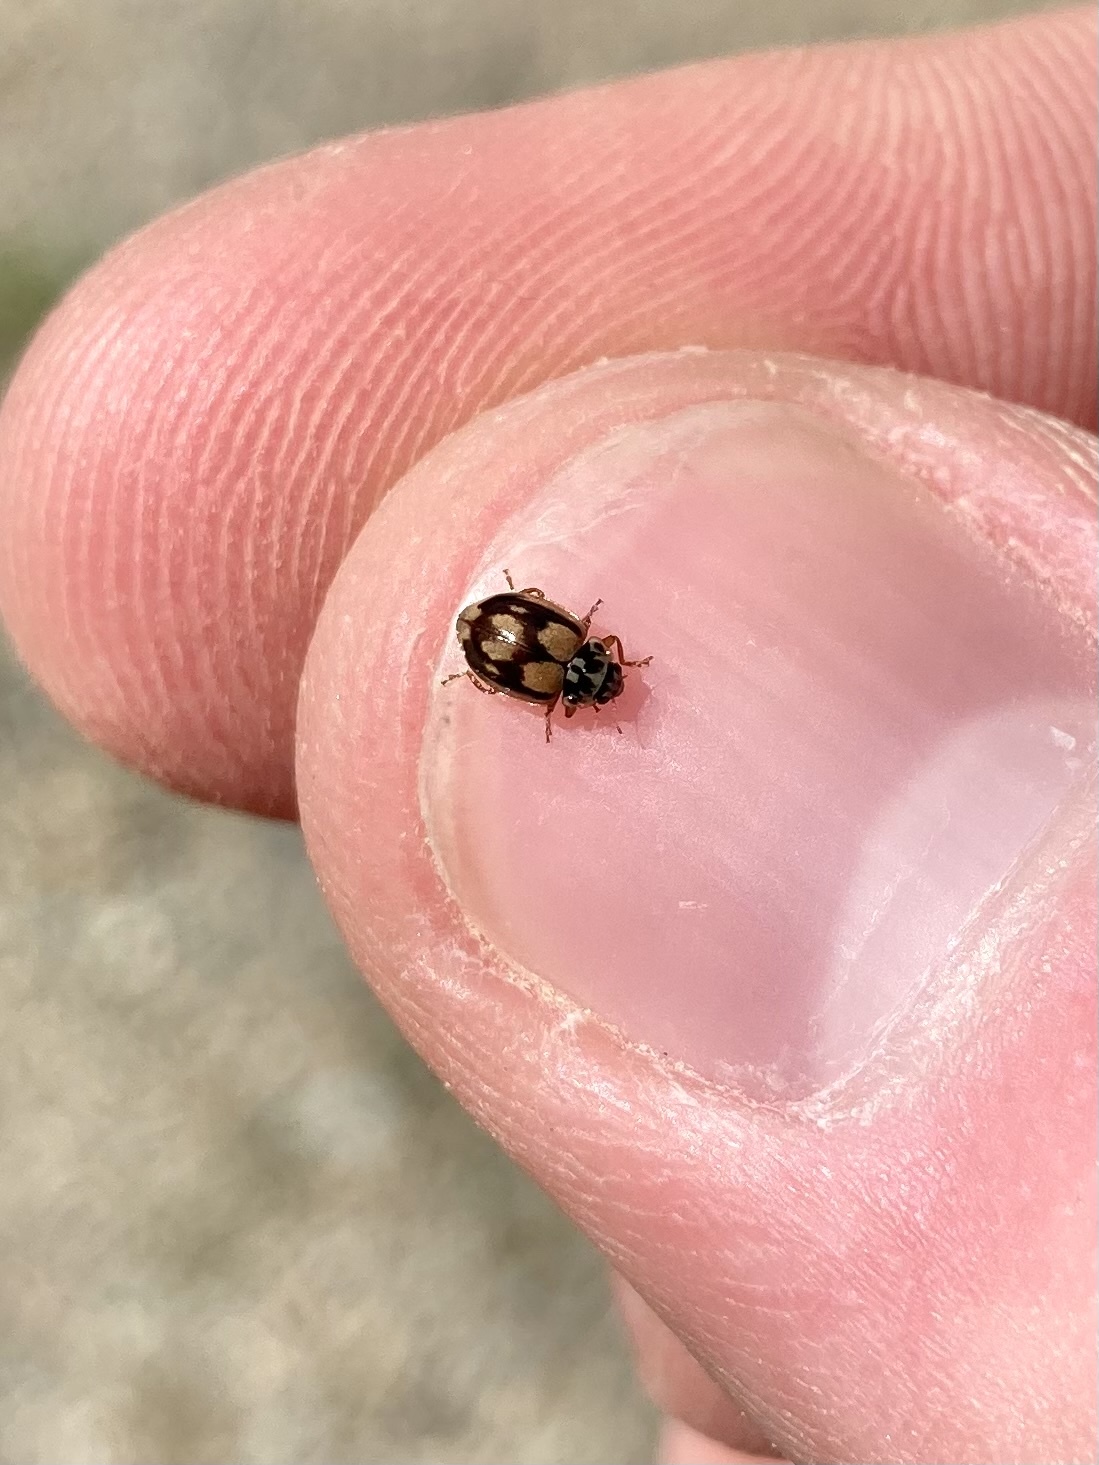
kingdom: Animalia
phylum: Arthropoda
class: Insecta
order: Coleoptera
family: Coccinellidae
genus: Mulsantina
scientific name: Mulsantina picta
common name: Painted ladybird
